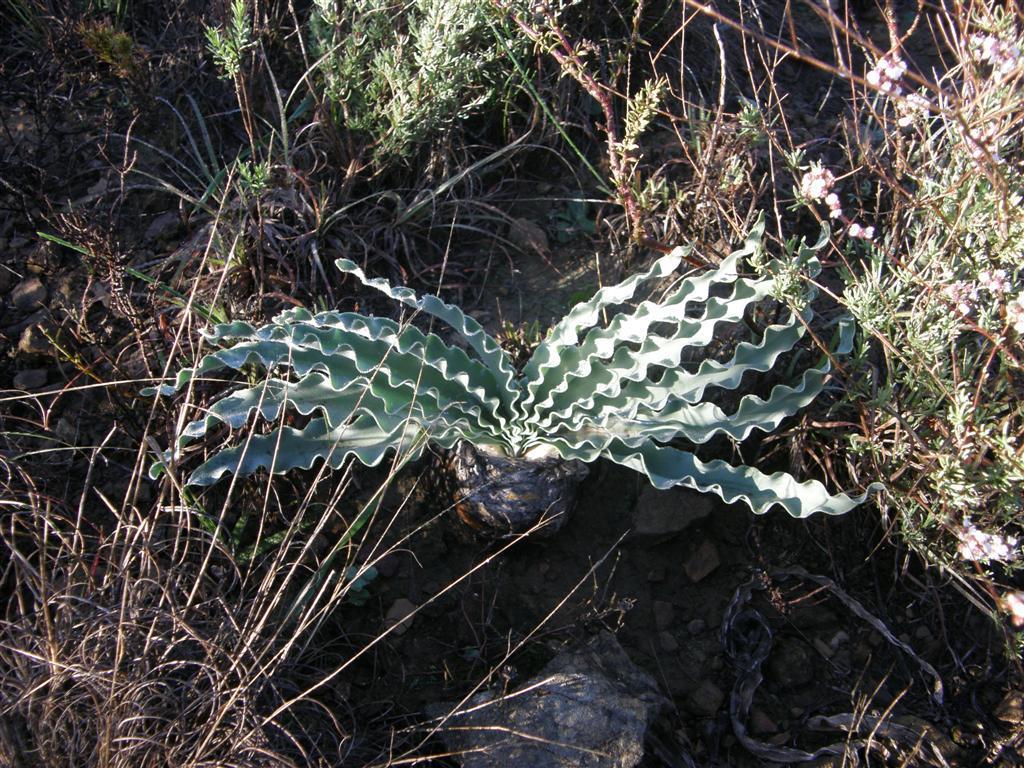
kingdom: Plantae
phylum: Tracheophyta
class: Liliopsida
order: Asparagales
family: Amaryllidaceae
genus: Boophone
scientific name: Boophone disticha
